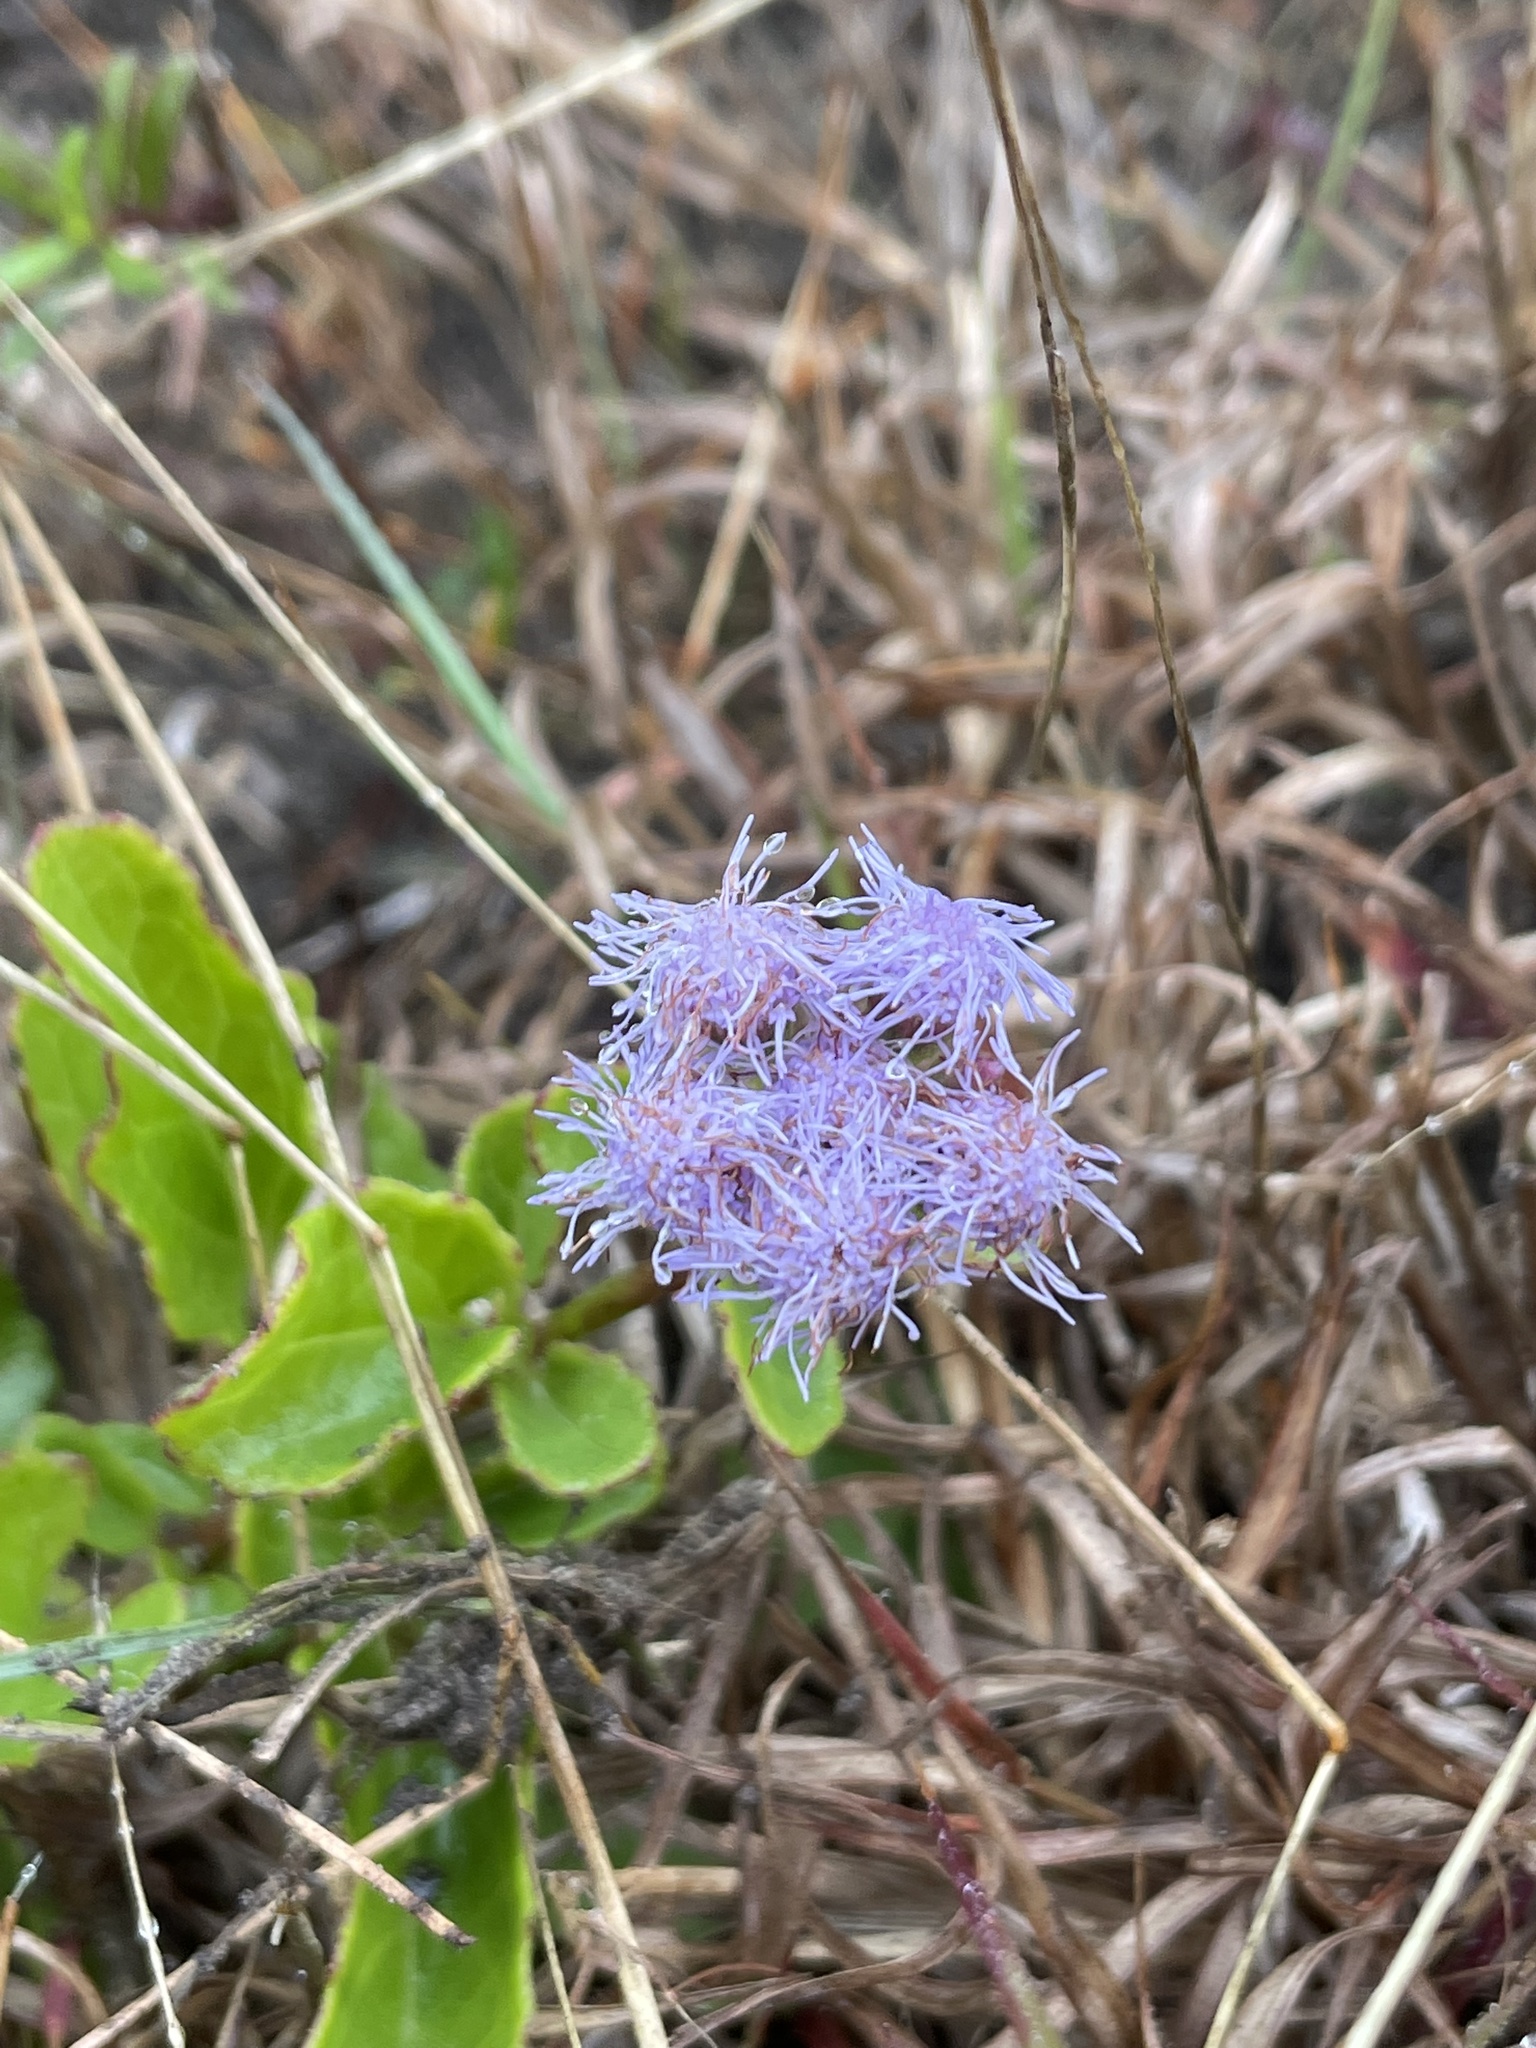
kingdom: Plantae
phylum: Tracheophyta
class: Magnoliopsida
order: Asterales
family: Asteraceae
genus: Conoclinium
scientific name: Conoclinium betonicifolium
